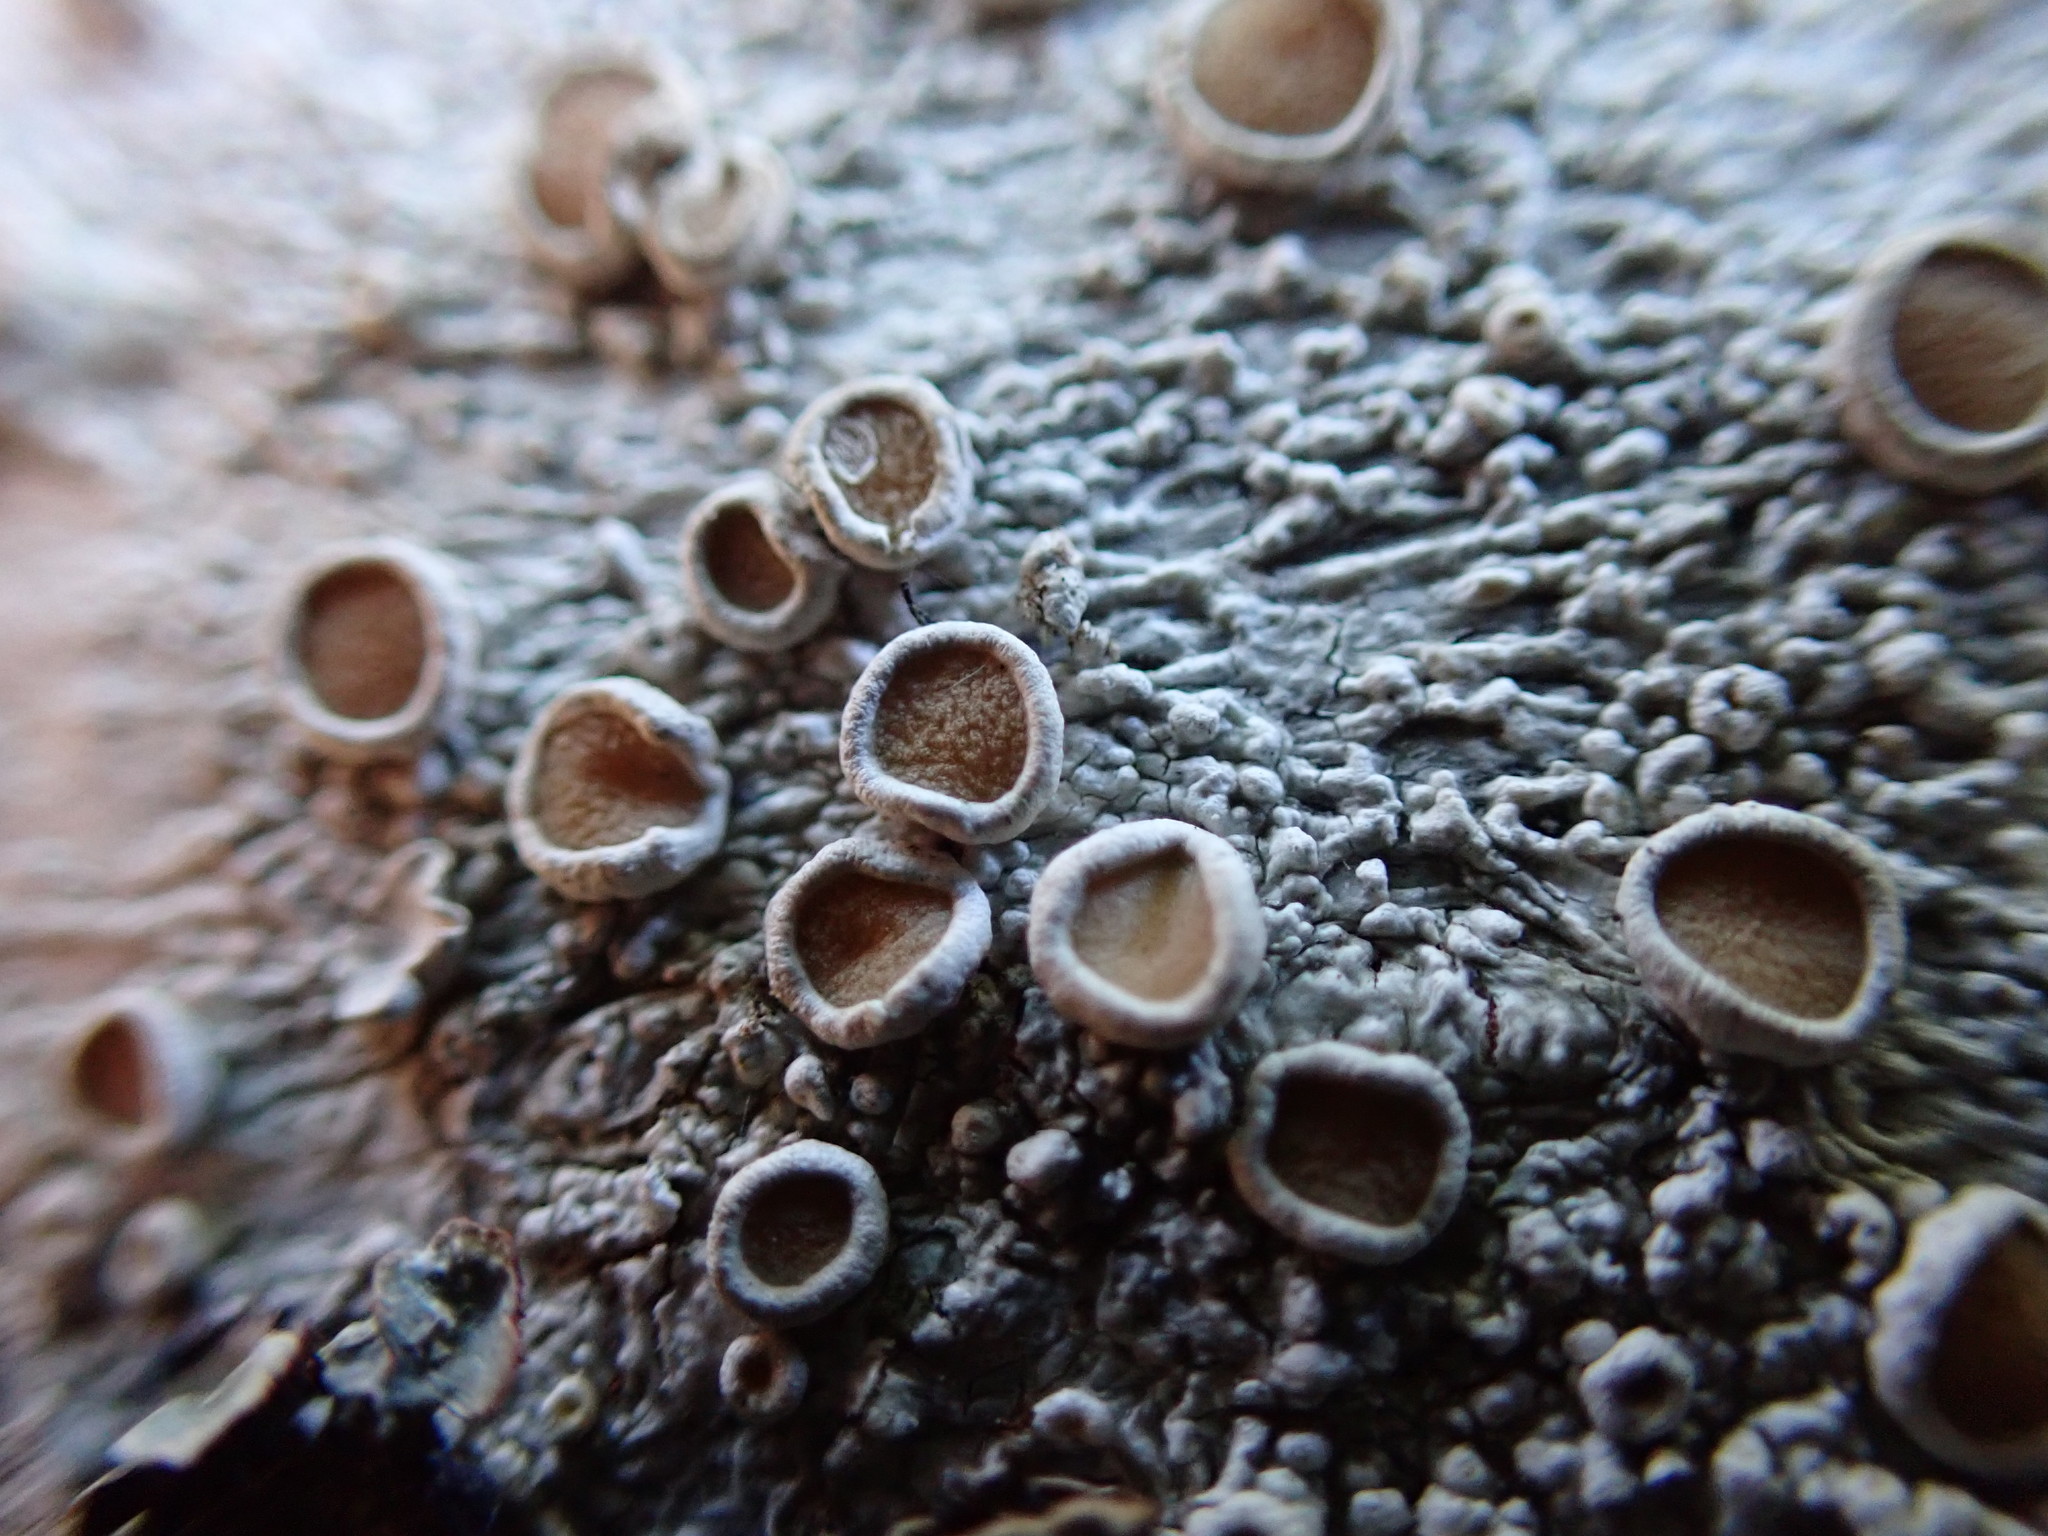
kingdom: Fungi
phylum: Ascomycota
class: Lecanoromycetes
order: Pertusariales
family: Ochrolechiaceae
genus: Ochrolechia
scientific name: Ochrolechia laevigata
